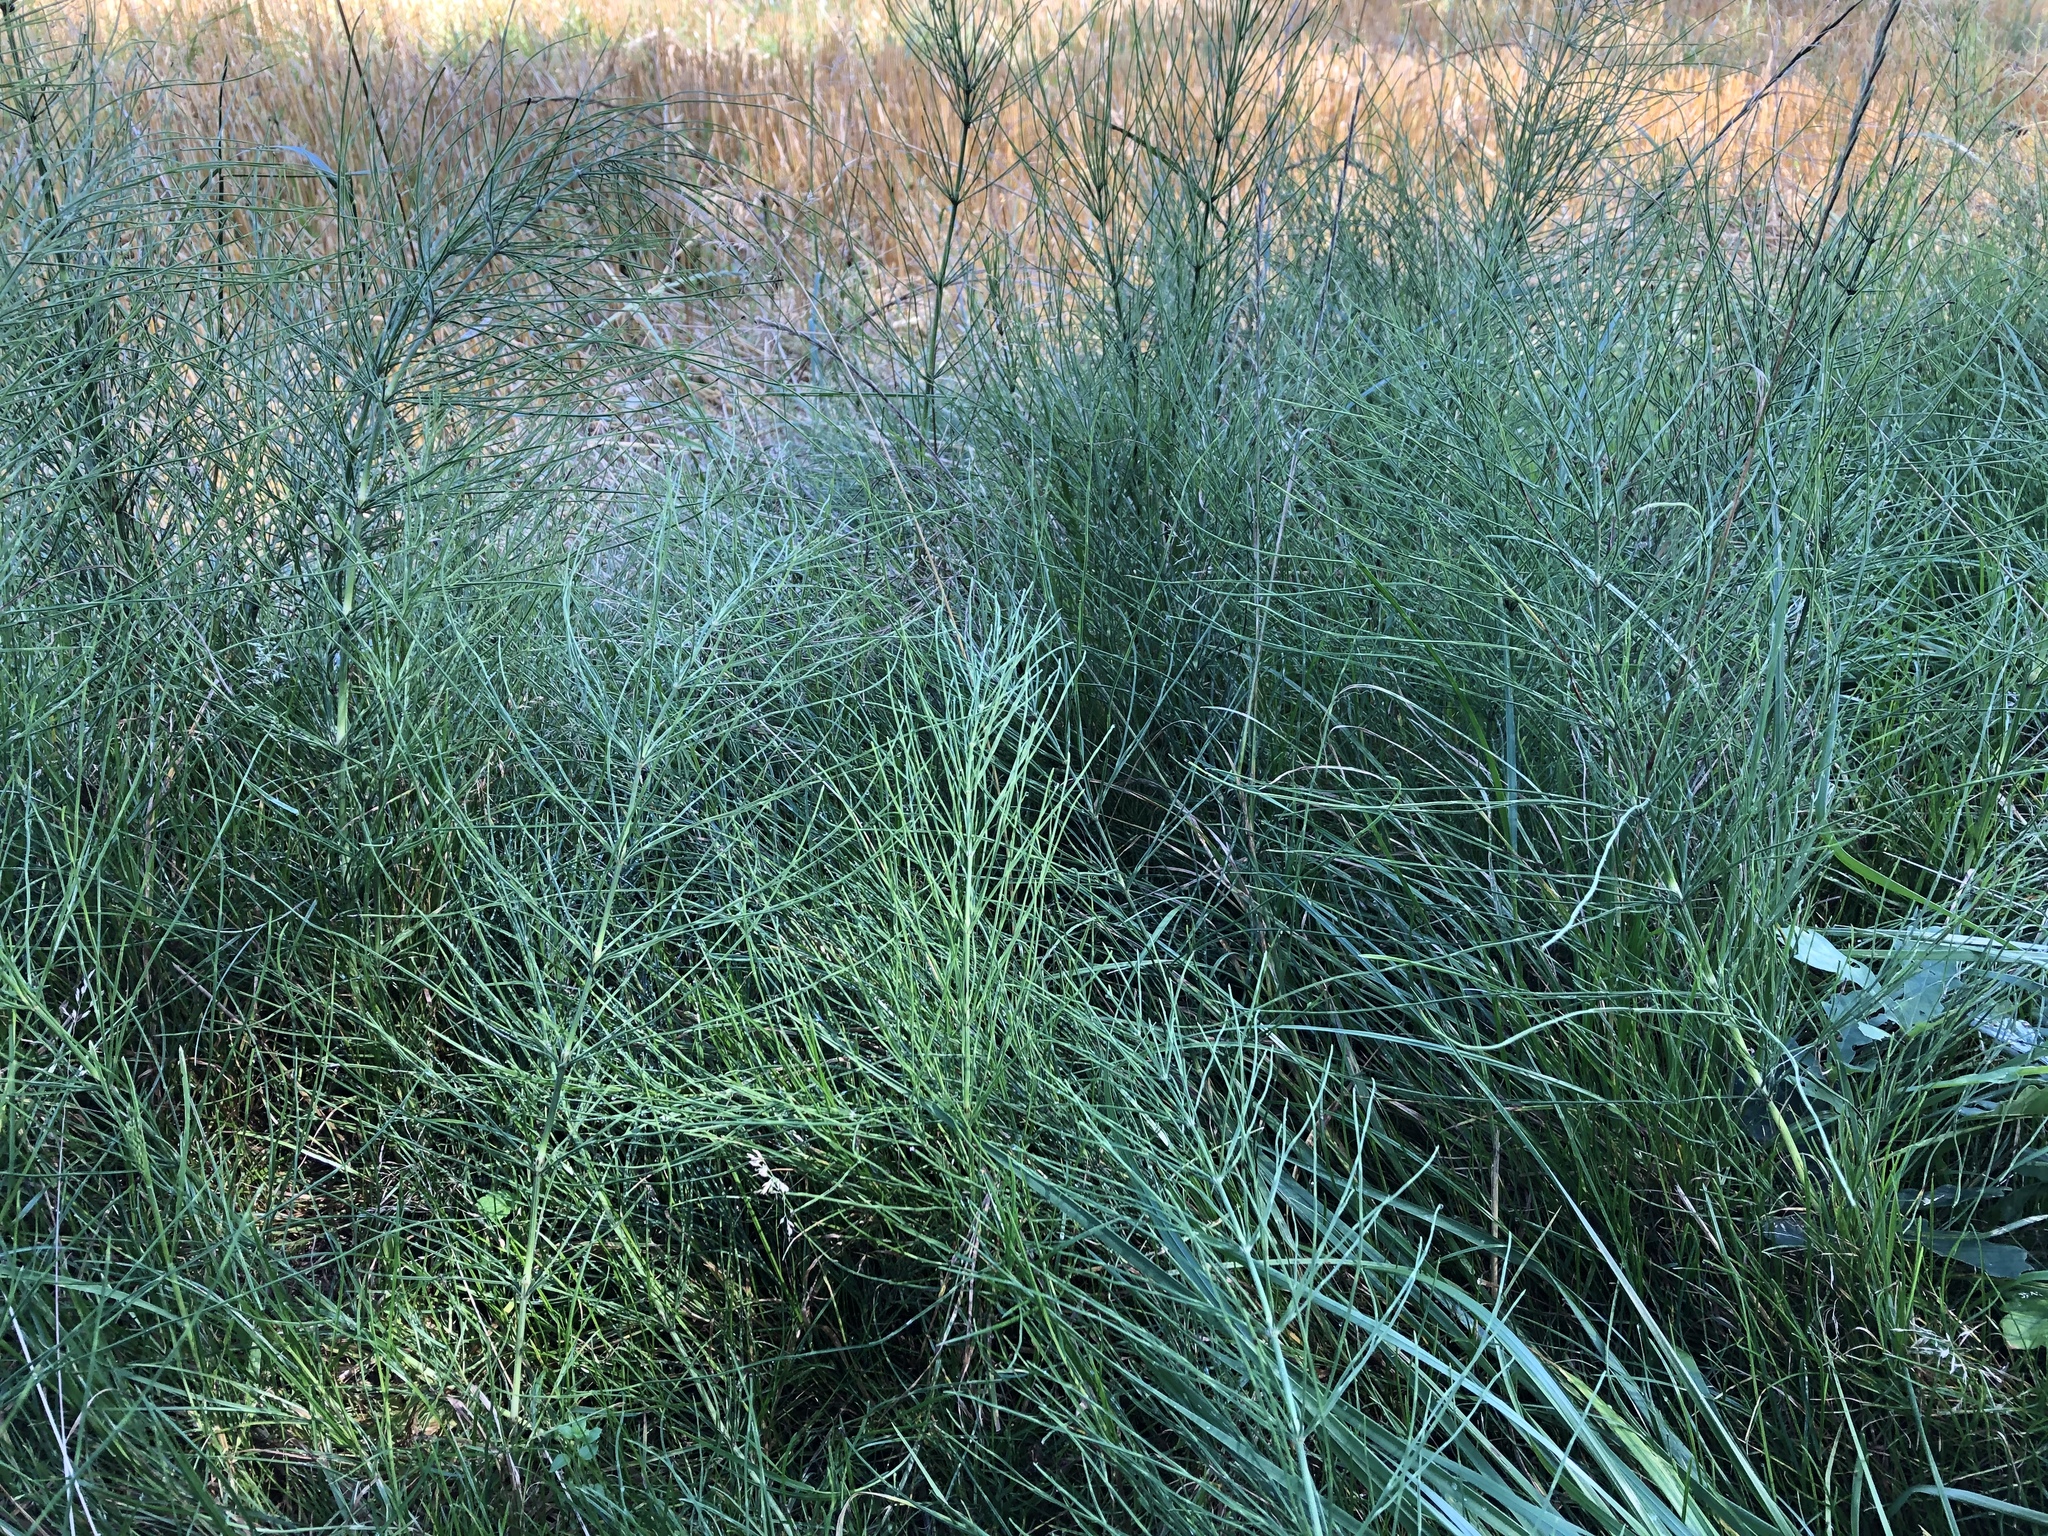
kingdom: Plantae
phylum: Tracheophyta
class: Polypodiopsida
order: Equisetales
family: Equisetaceae
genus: Equisetum
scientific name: Equisetum arvense
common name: Field horsetail
